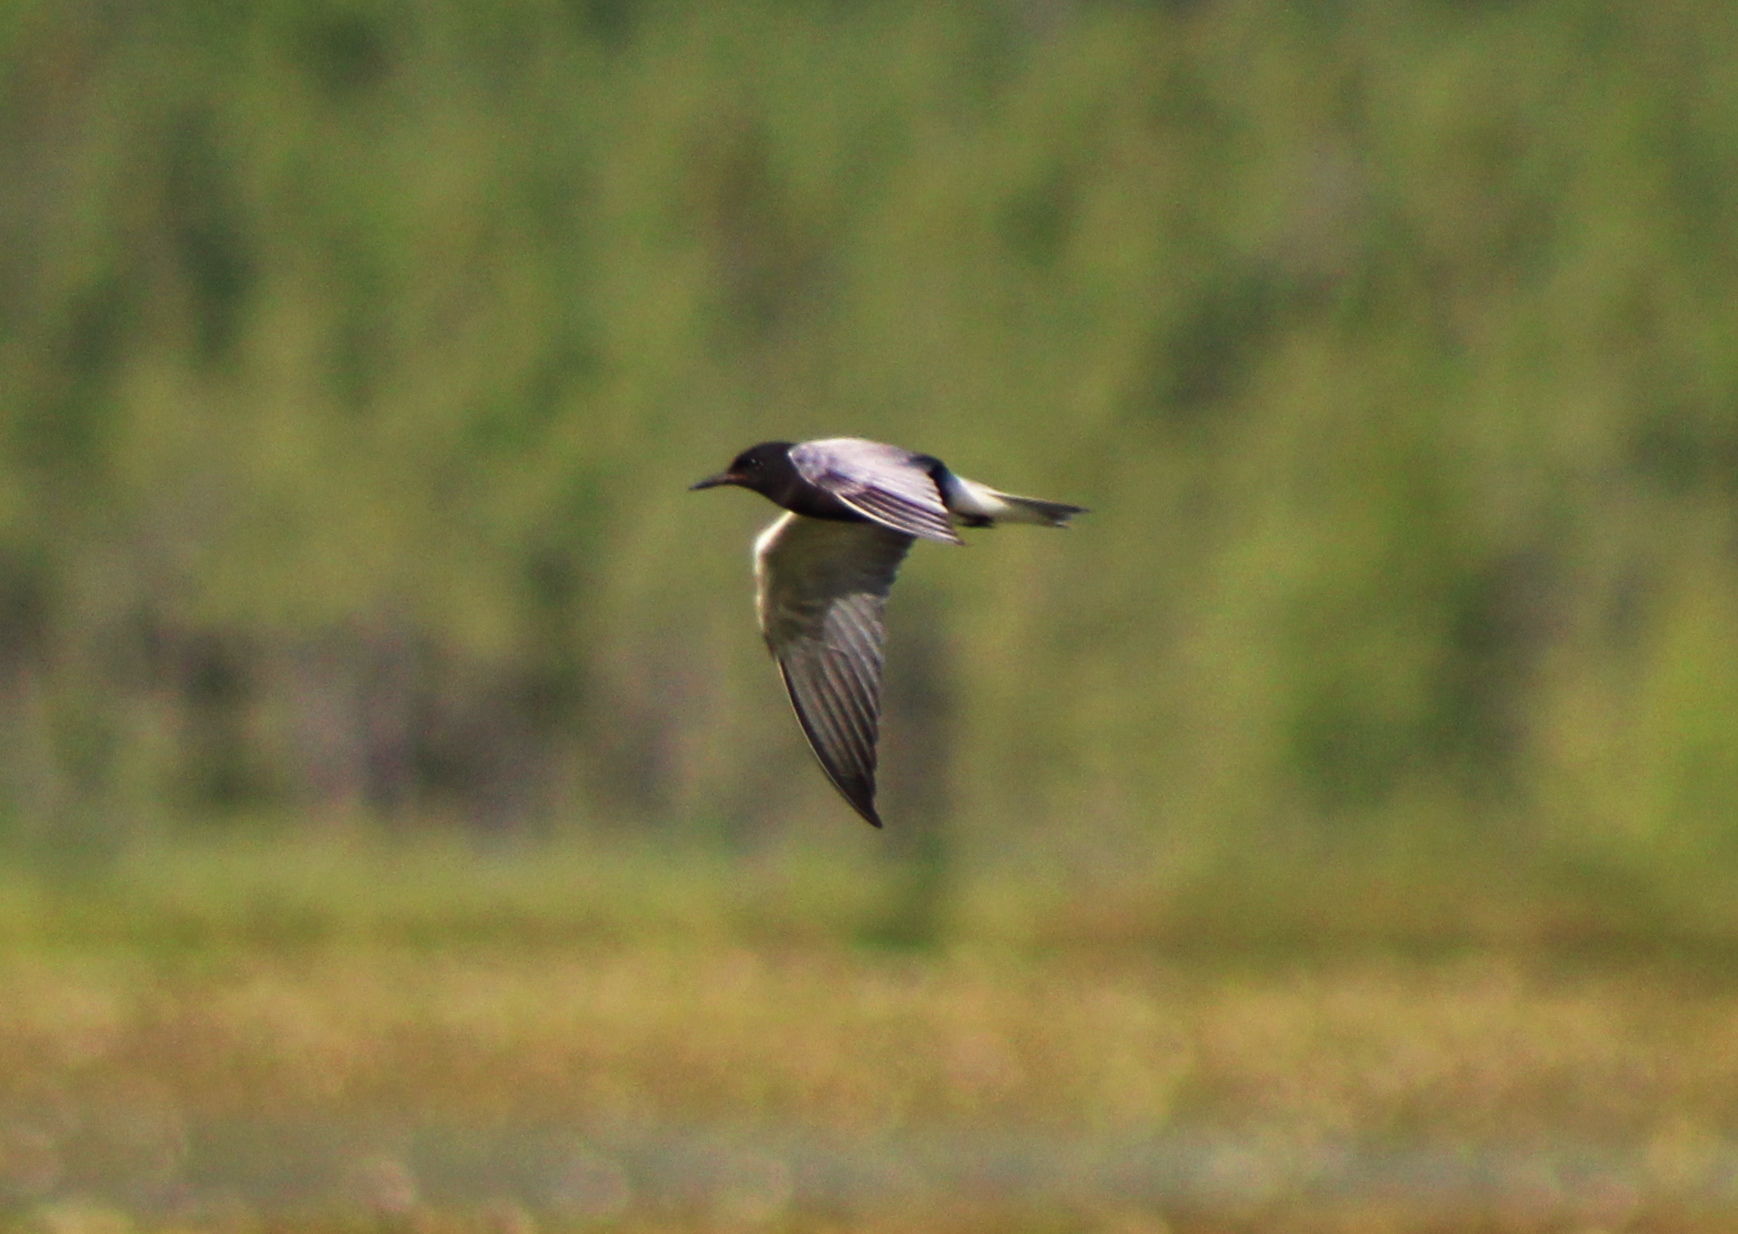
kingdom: Animalia
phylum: Chordata
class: Aves
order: Charadriiformes
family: Laridae
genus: Chlidonias
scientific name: Chlidonias niger
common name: Black tern
